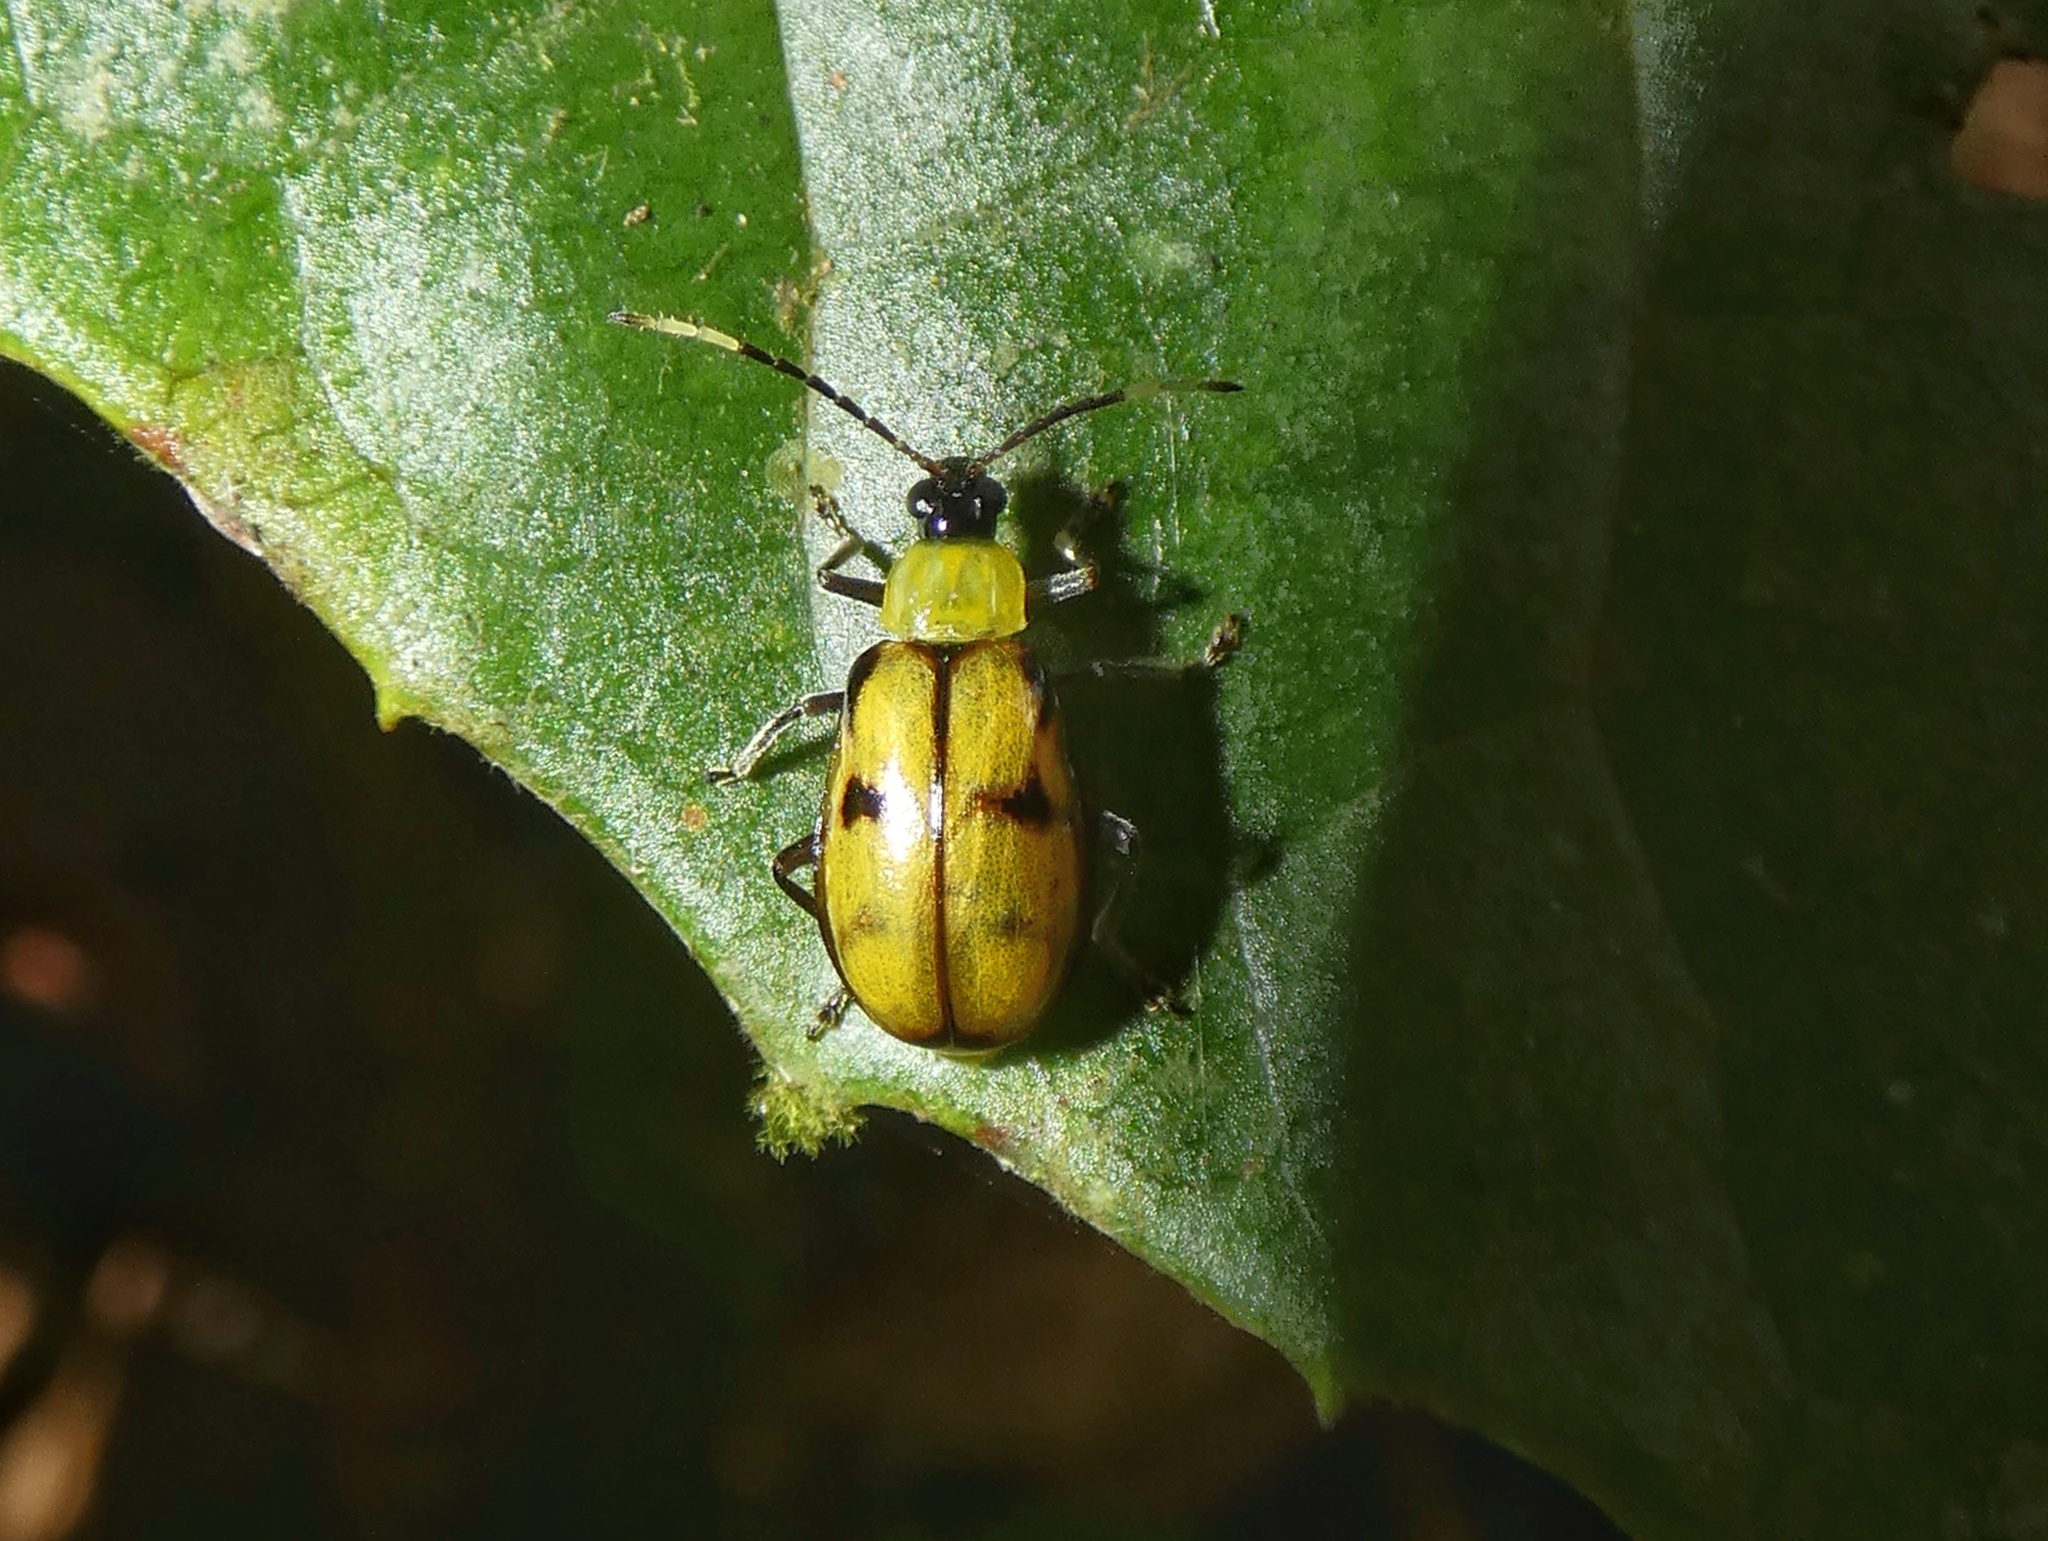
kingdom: Animalia
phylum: Arthropoda
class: Insecta
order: Coleoptera
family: Chrysomelidae
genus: Diabrotica
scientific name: Diabrotica
